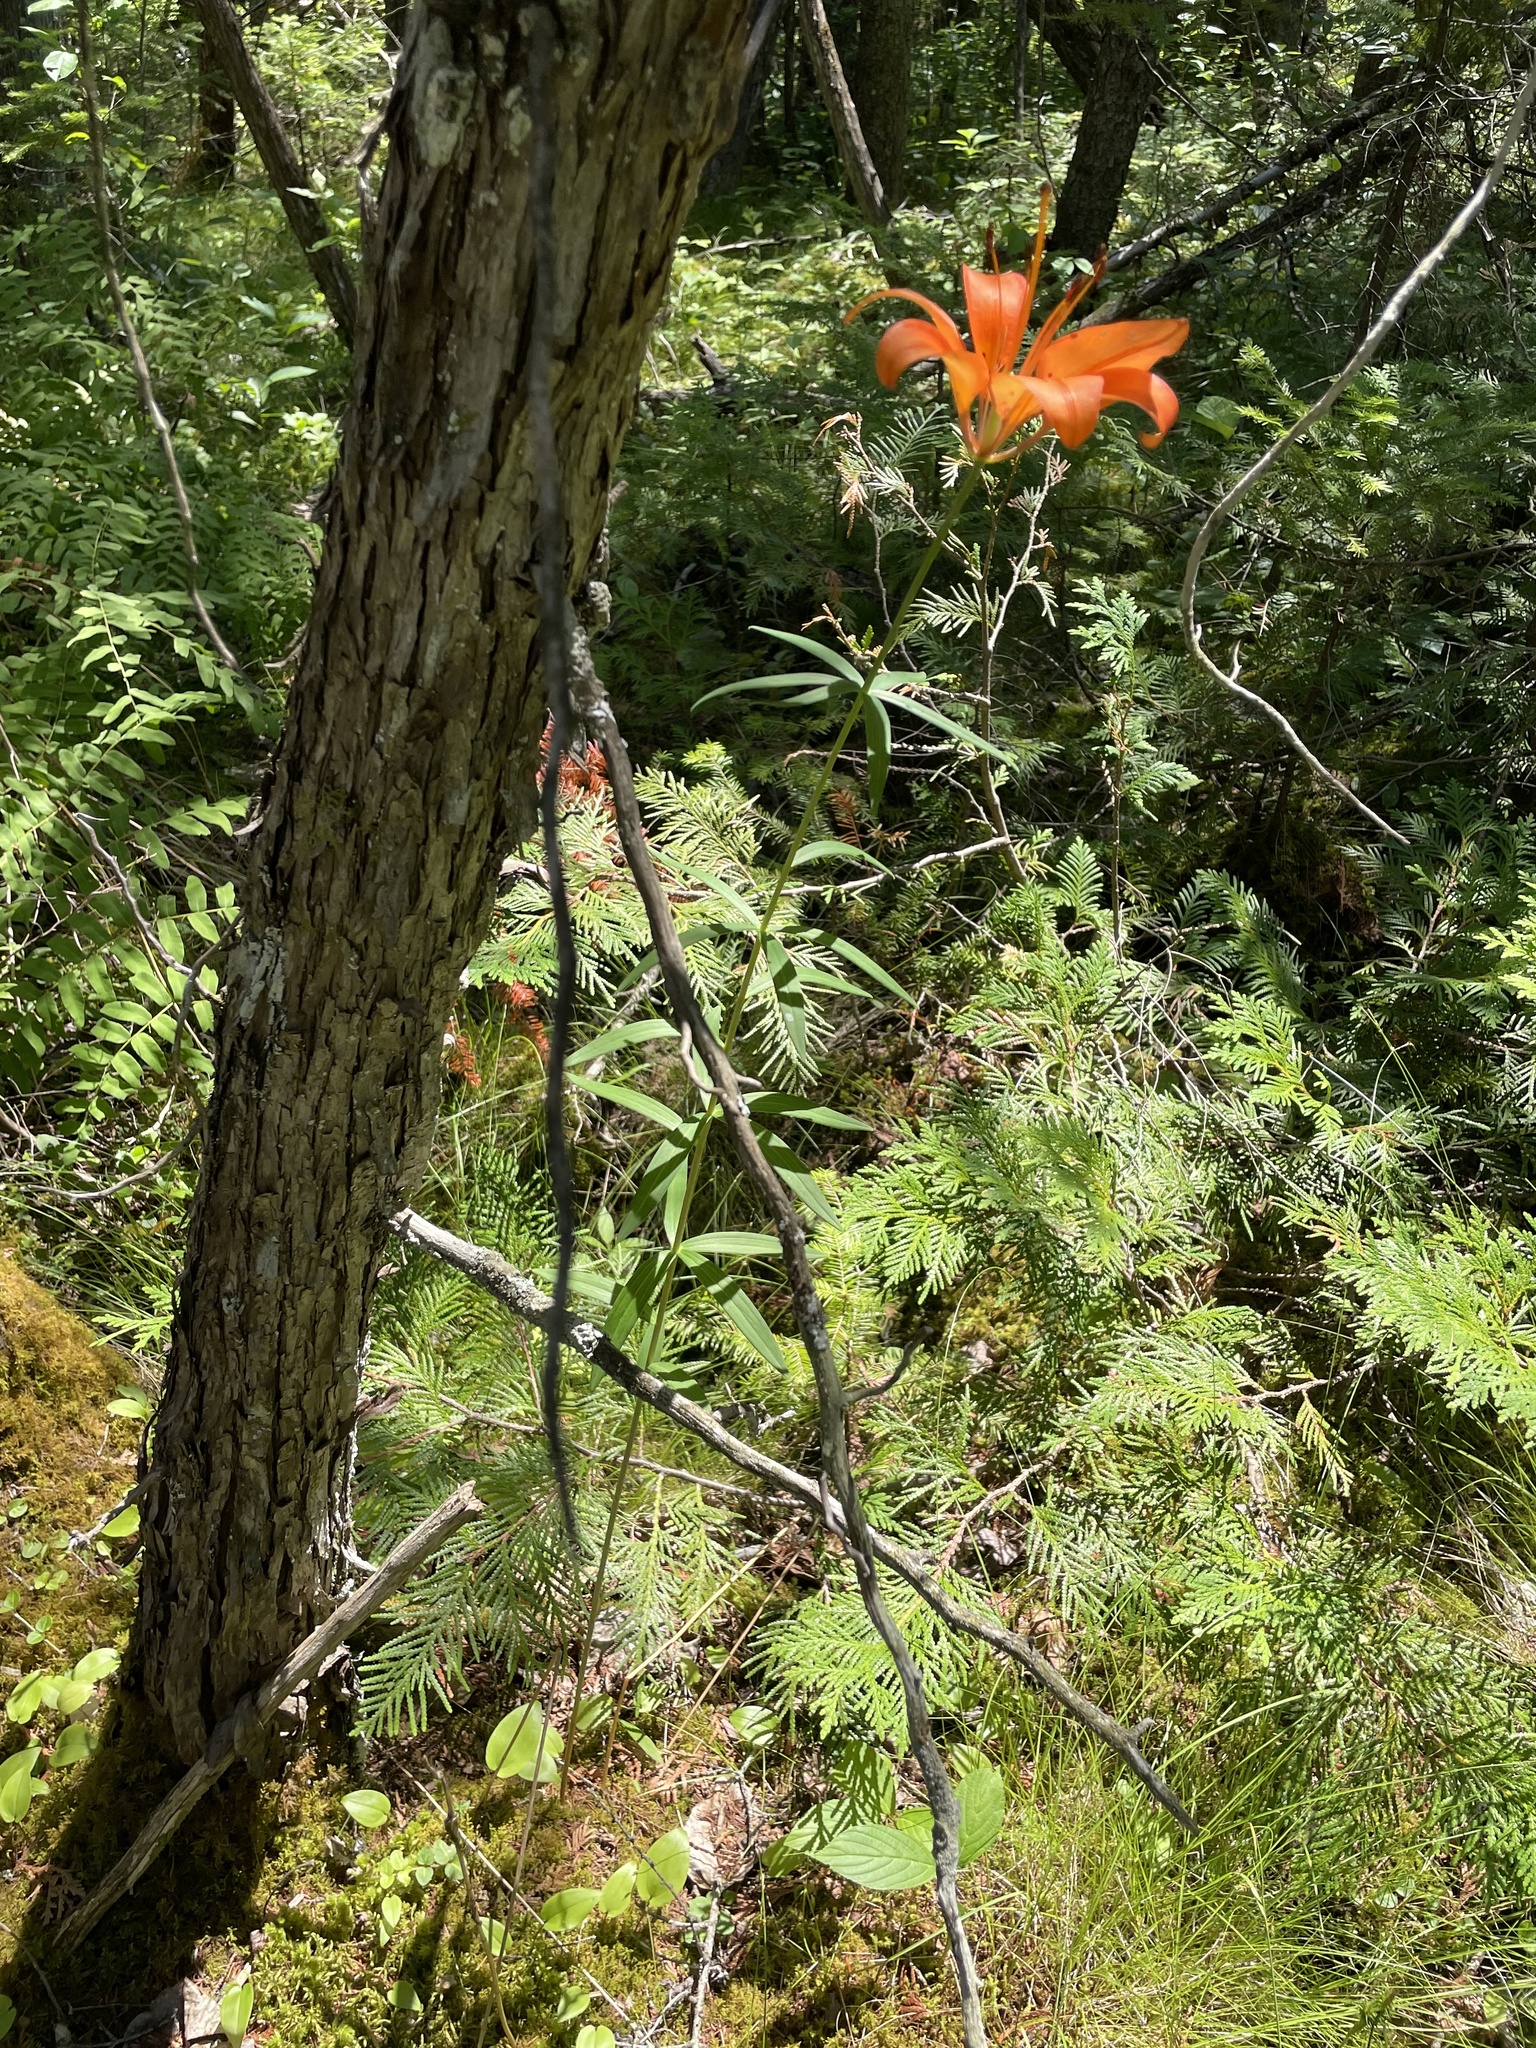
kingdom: Plantae
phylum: Tracheophyta
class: Liliopsida
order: Liliales
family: Liliaceae
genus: Lilium
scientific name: Lilium philadelphicum
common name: Red lily
